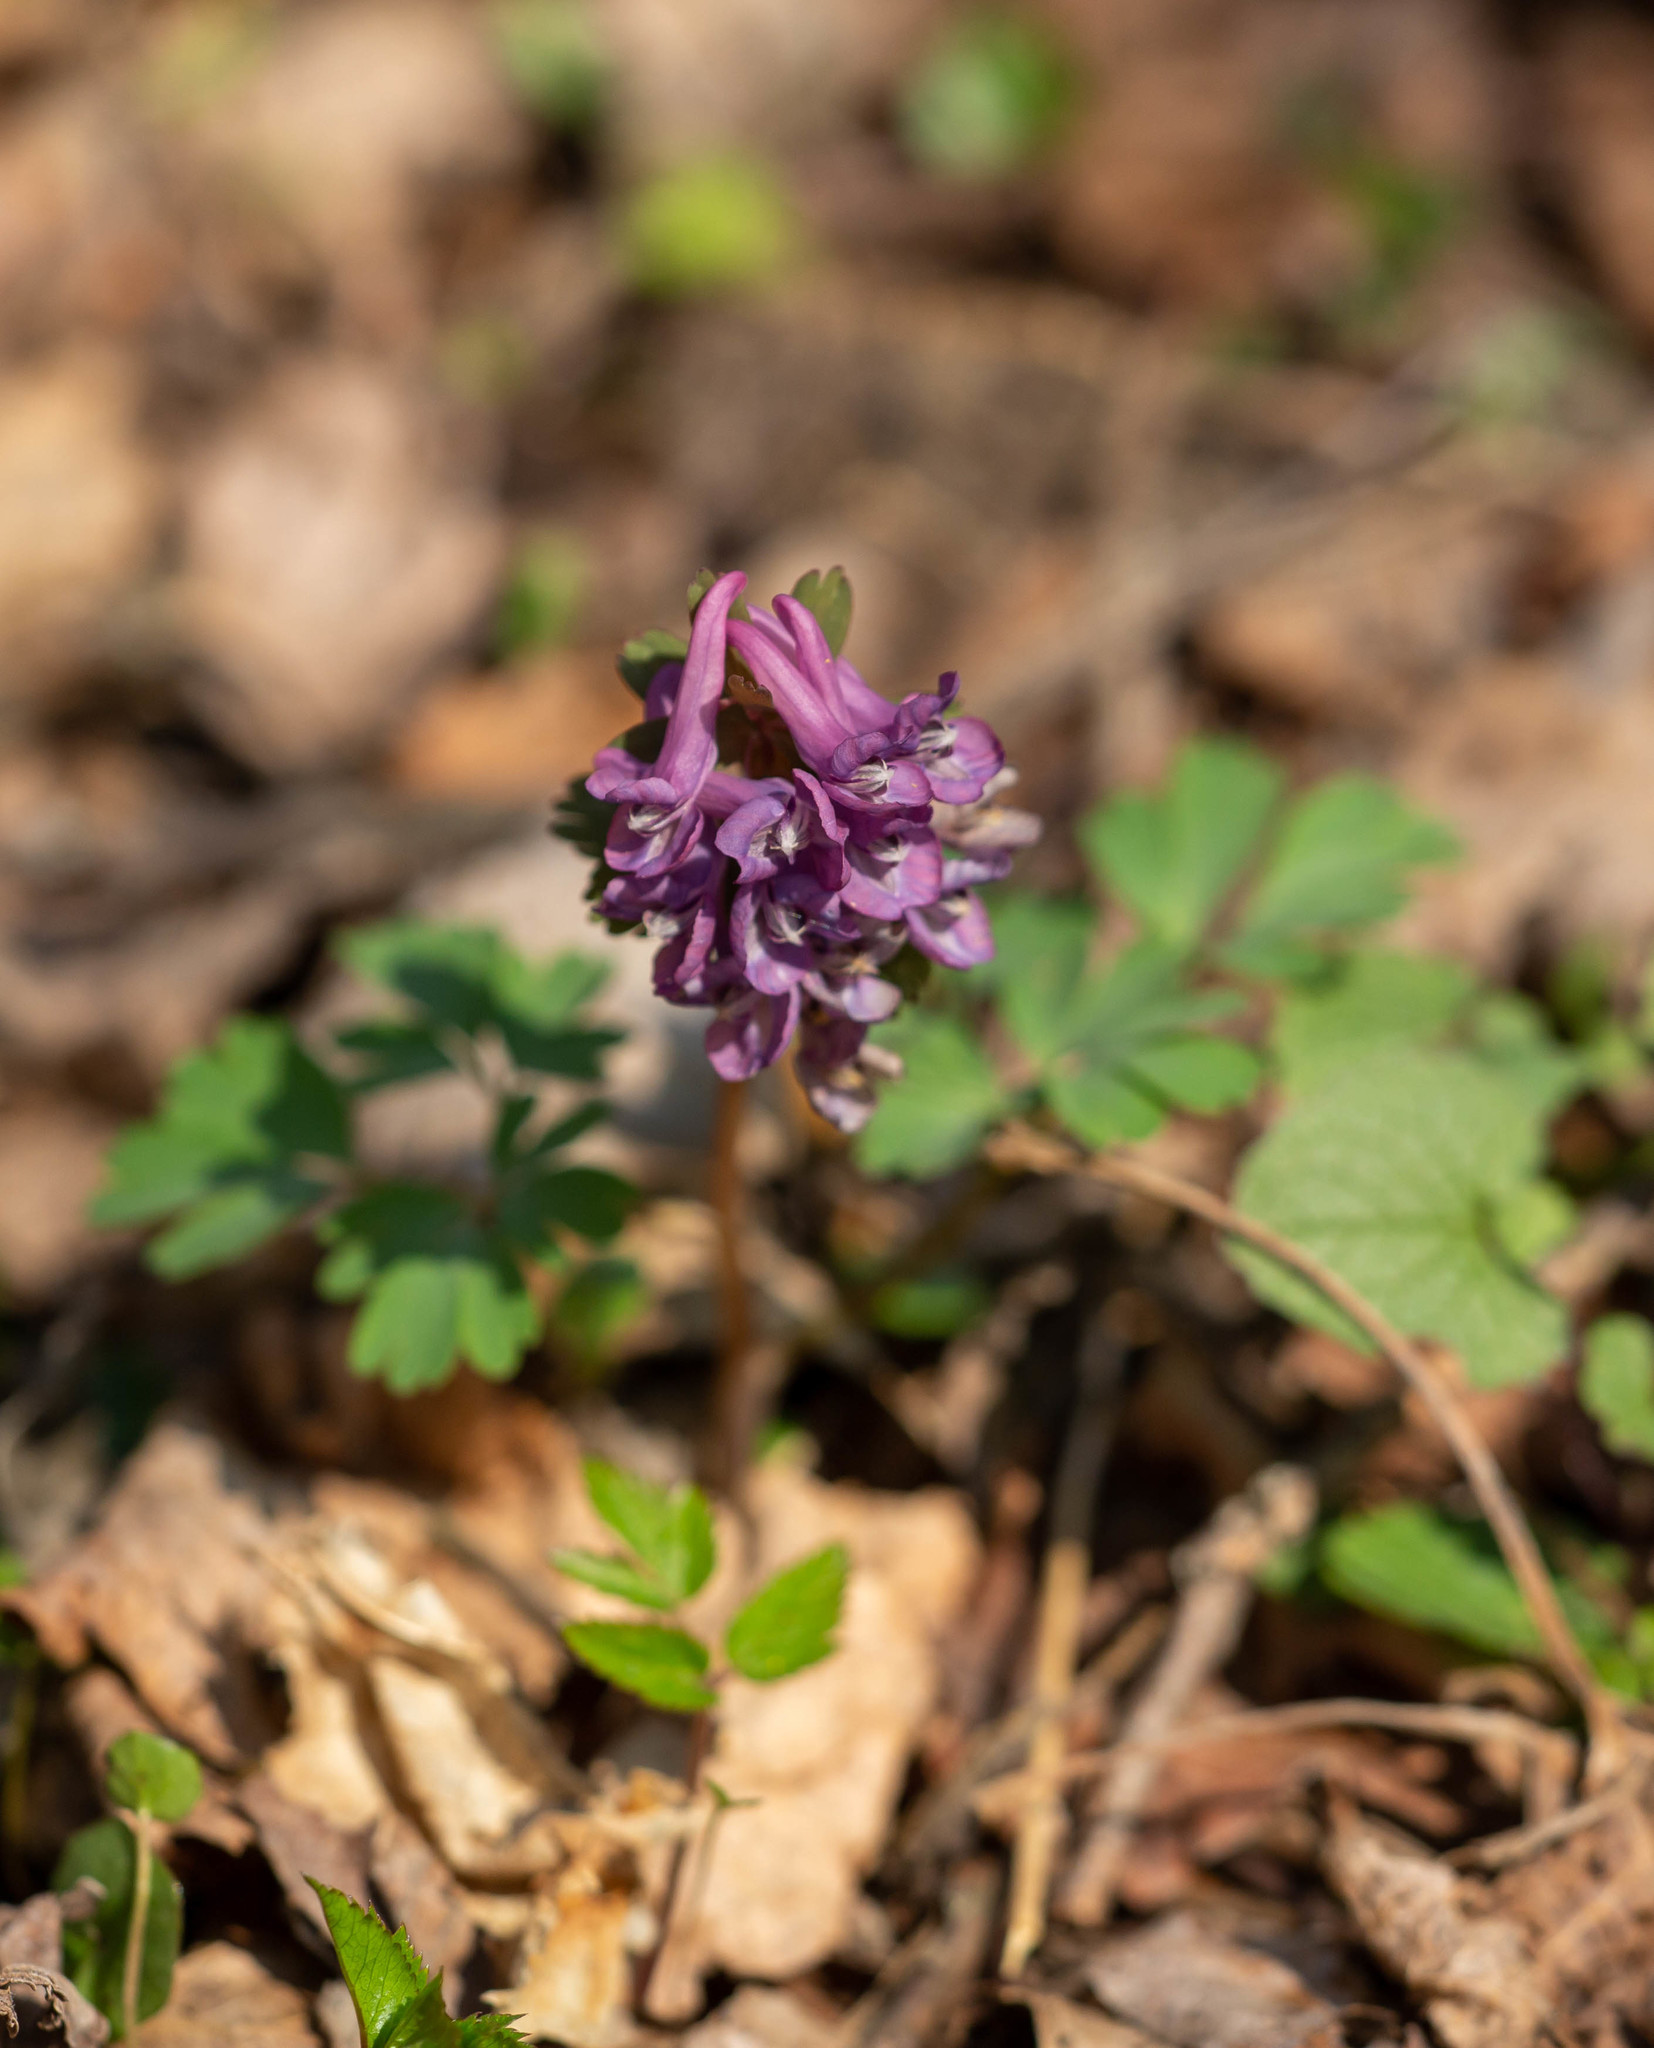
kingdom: Plantae
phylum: Tracheophyta
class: Magnoliopsida
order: Ranunculales
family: Papaveraceae
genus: Corydalis
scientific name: Corydalis solida
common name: Bird-in-a-bush
